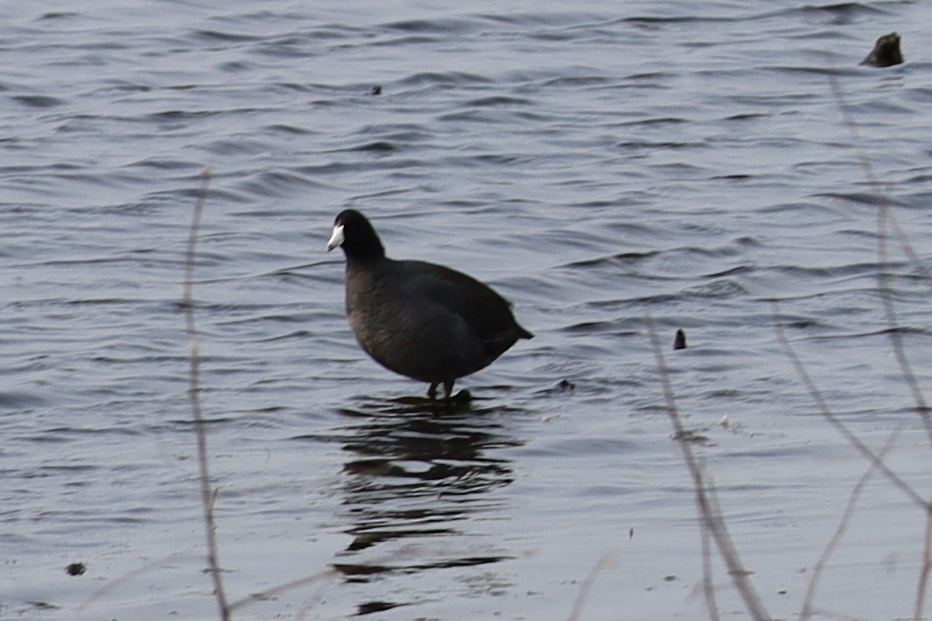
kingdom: Animalia
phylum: Chordata
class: Aves
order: Gruiformes
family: Rallidae
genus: Fulica
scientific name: Fulica americana
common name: American coot
